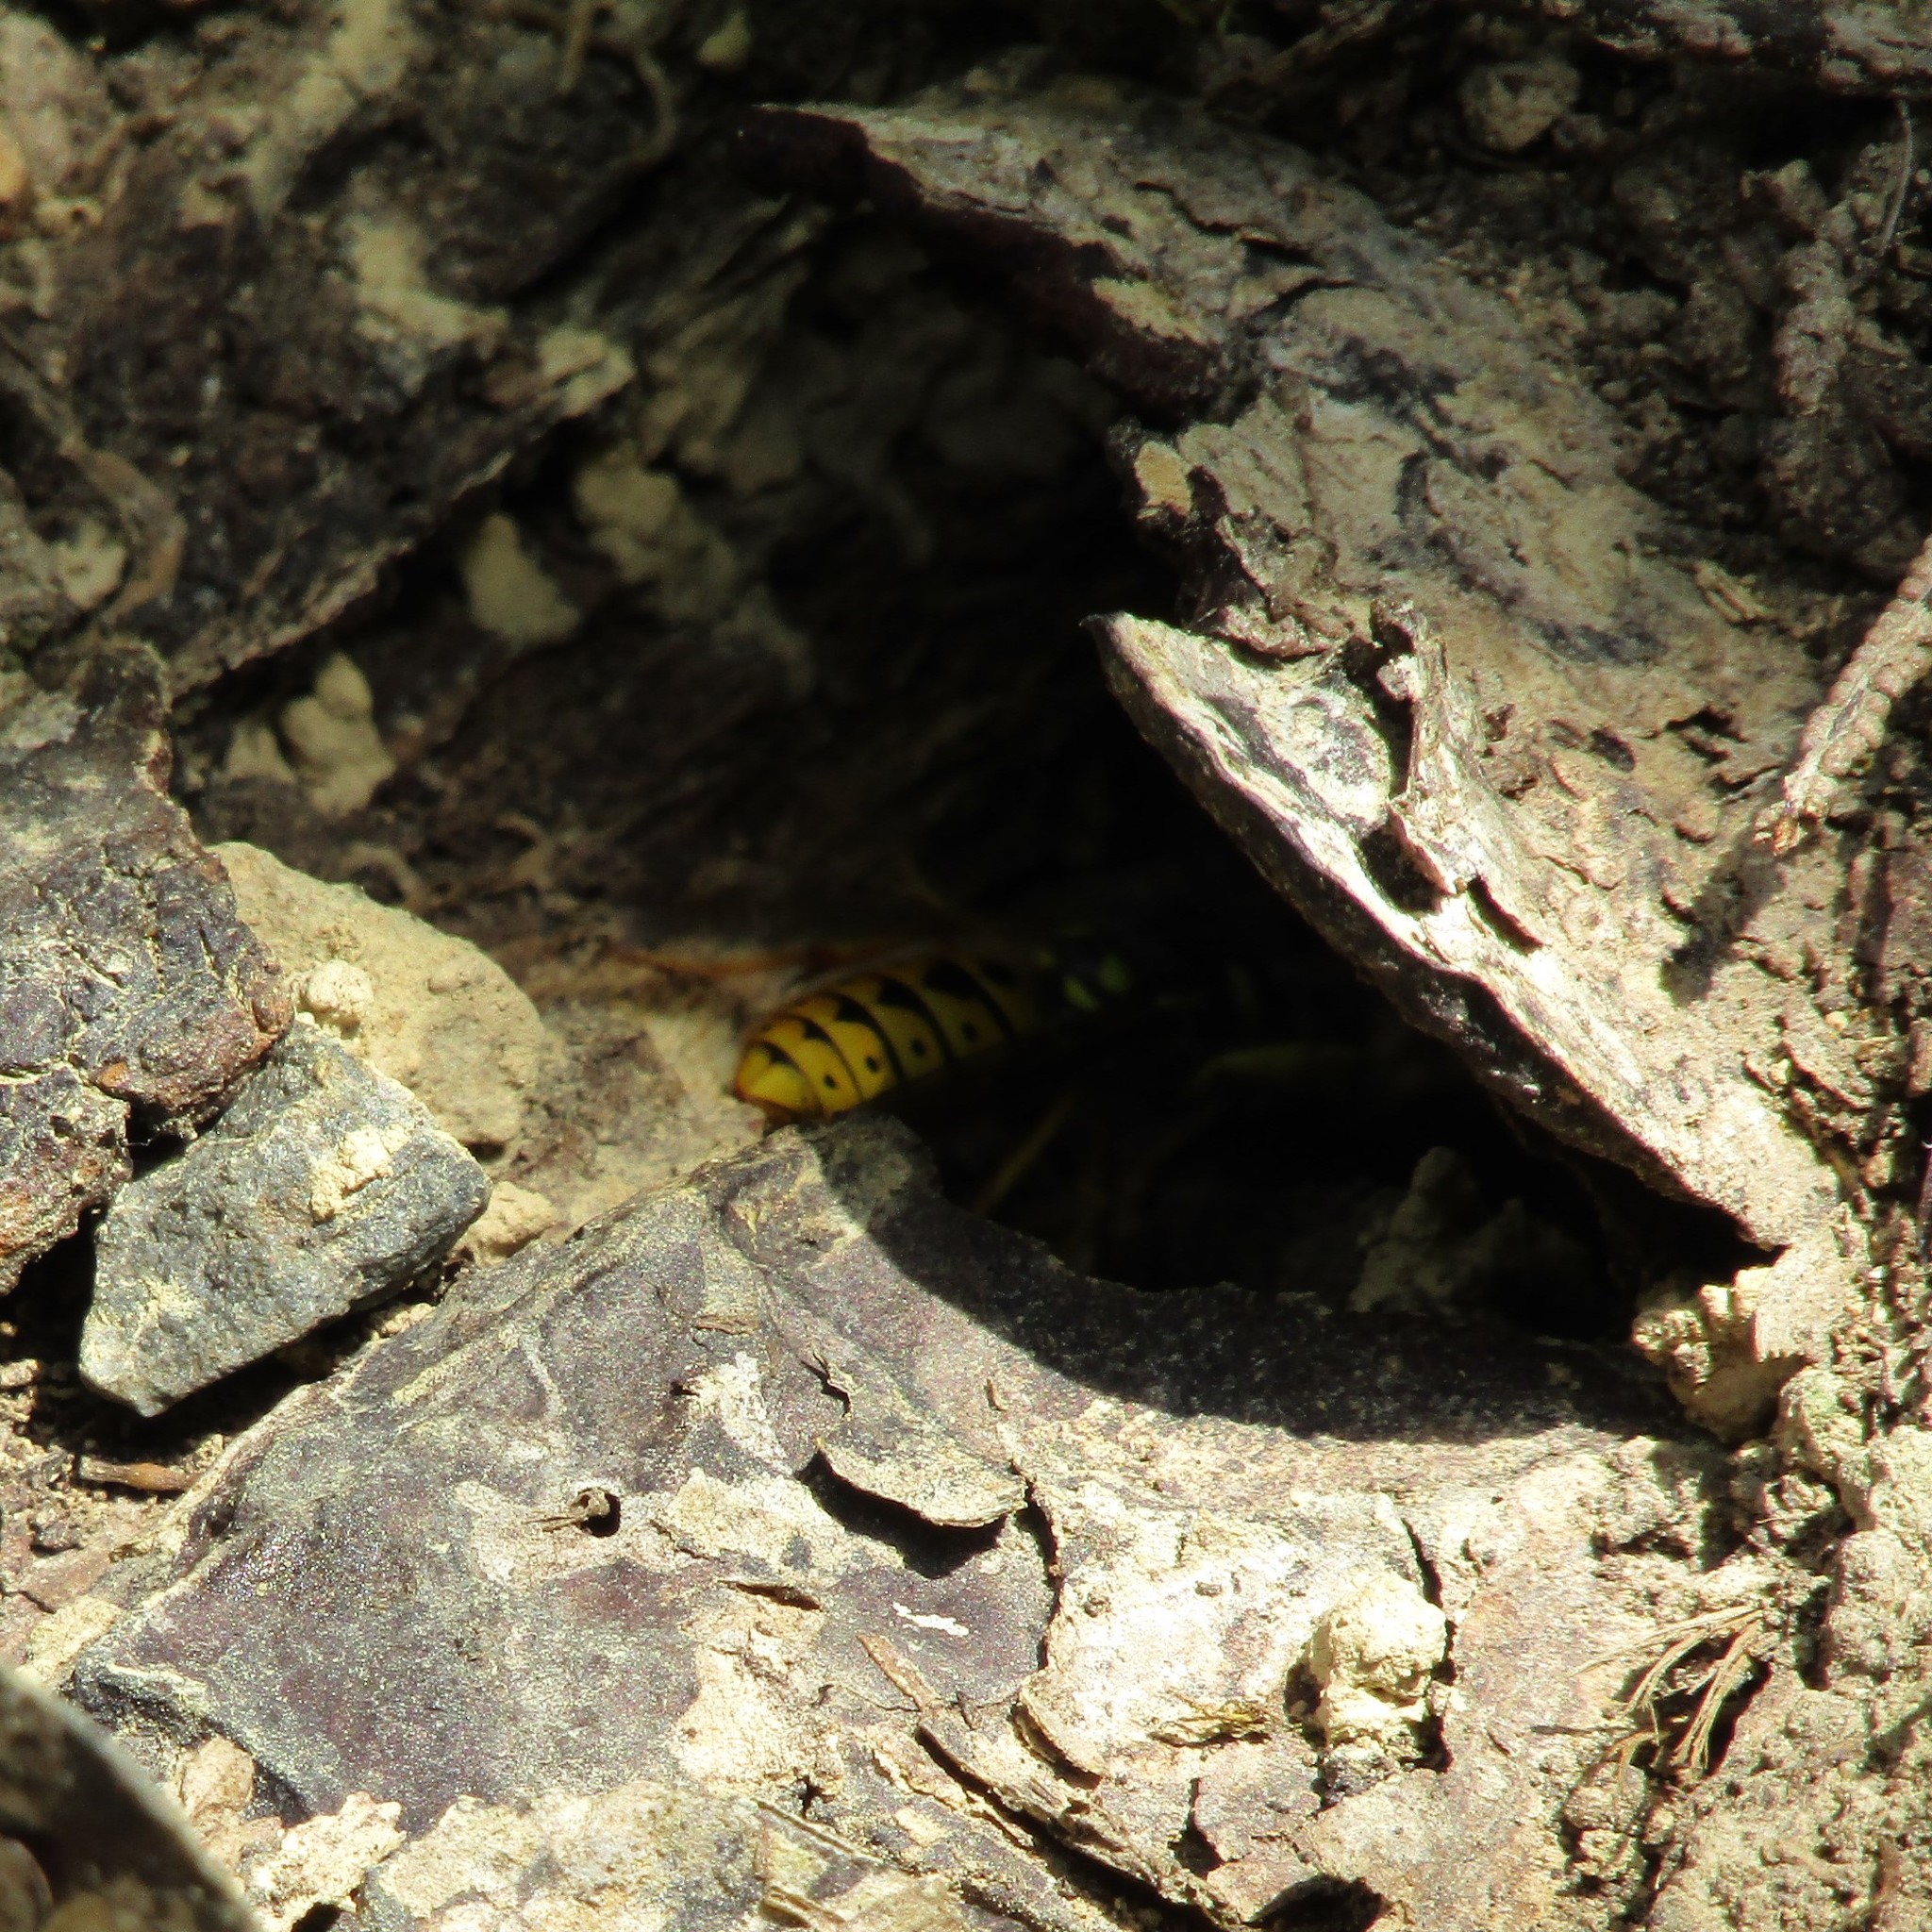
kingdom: Animalia
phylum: Arthropoda
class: Insecta
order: Hymenoptera
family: Vespidae
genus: Vespula
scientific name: Vespula germanica
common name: German wasp
